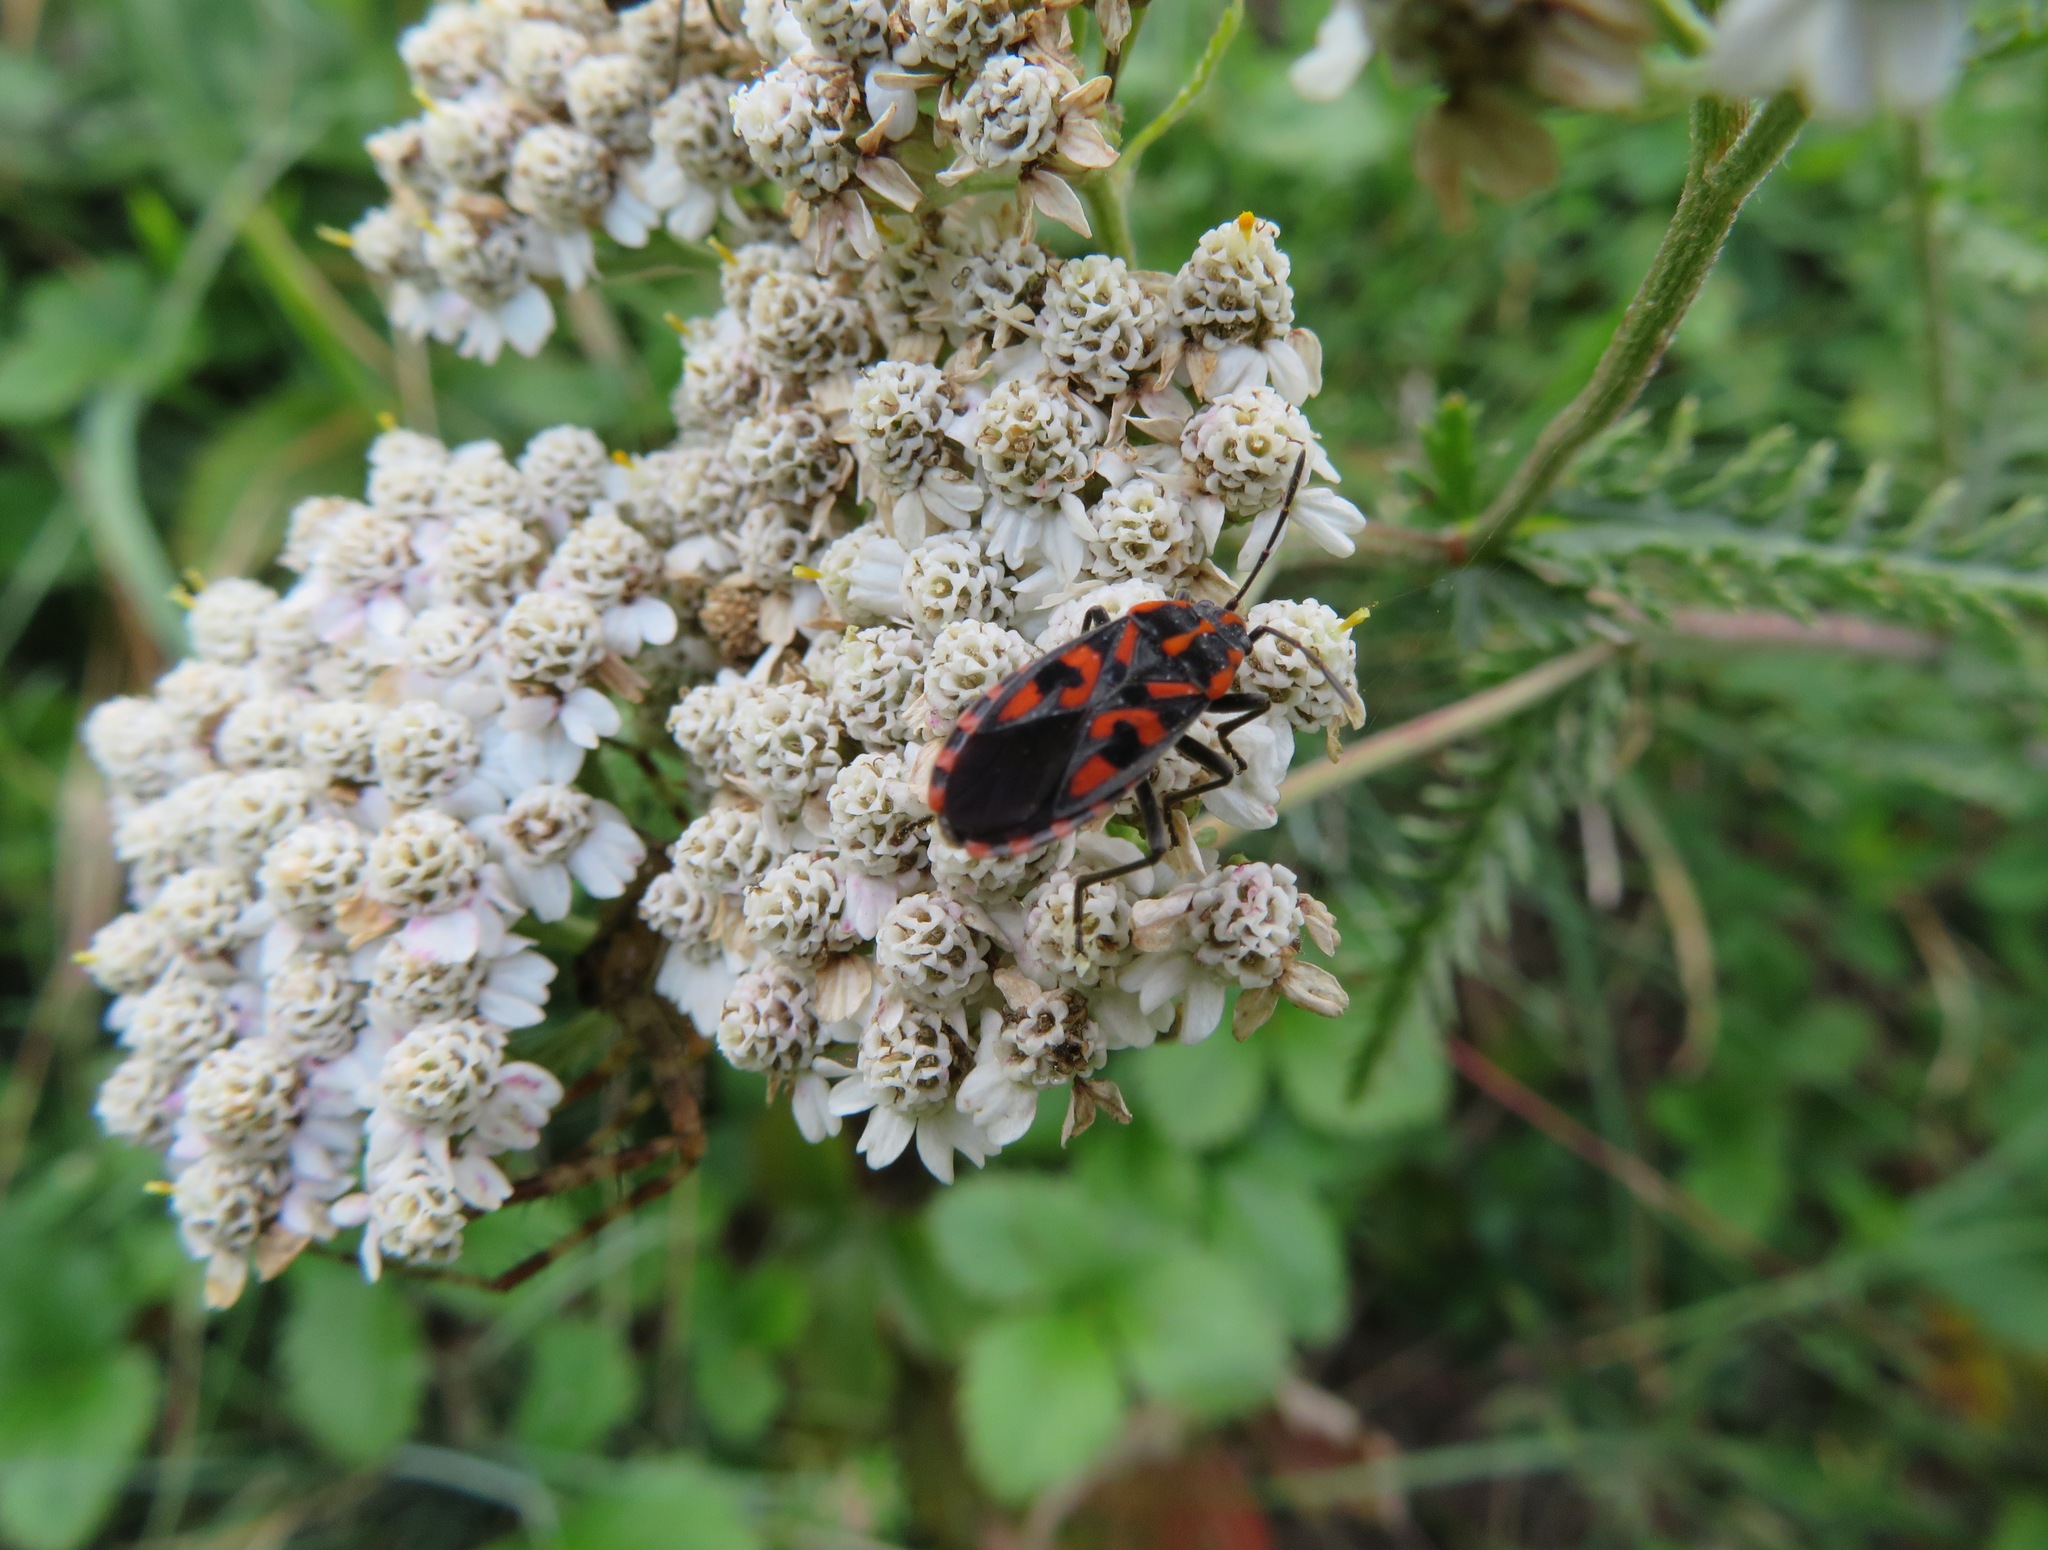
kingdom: Animalia
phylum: Arthropoda
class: Insecta
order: Hemiptera
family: Lygaeidae
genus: Spilostethus
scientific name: Spilostethus saxatilis
